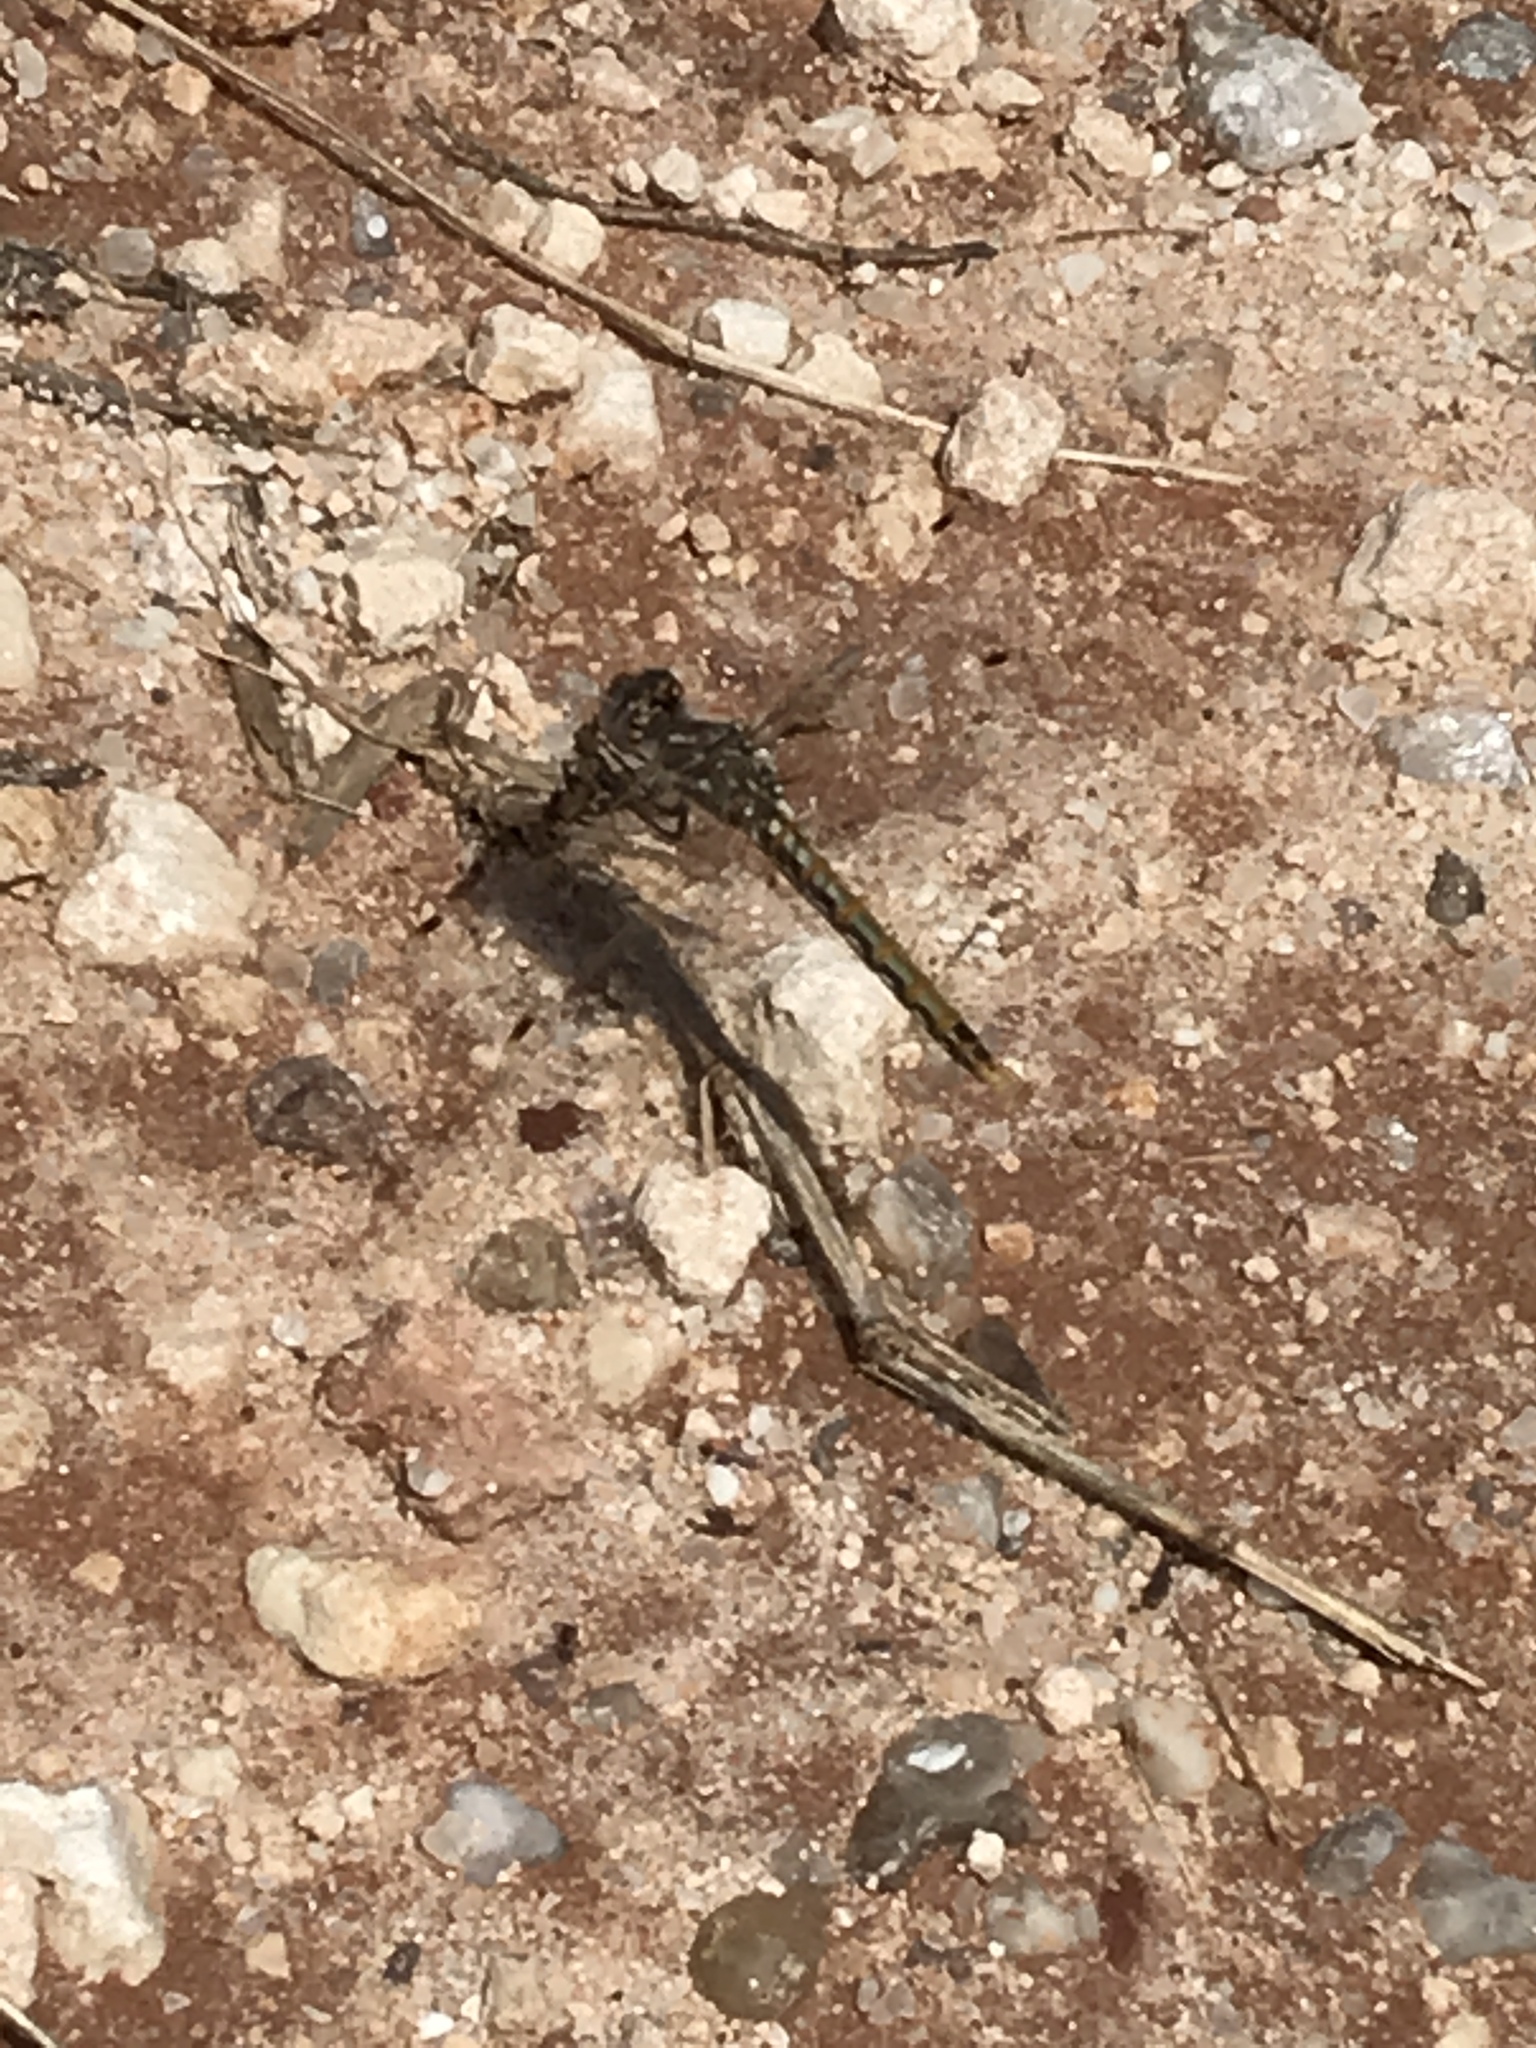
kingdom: Animalia
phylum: Arthropoda
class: Insecta
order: Odonata
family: Libellulidae
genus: Sympetrum
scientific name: Sympetrum corruptum
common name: Variegated meadowhawk
